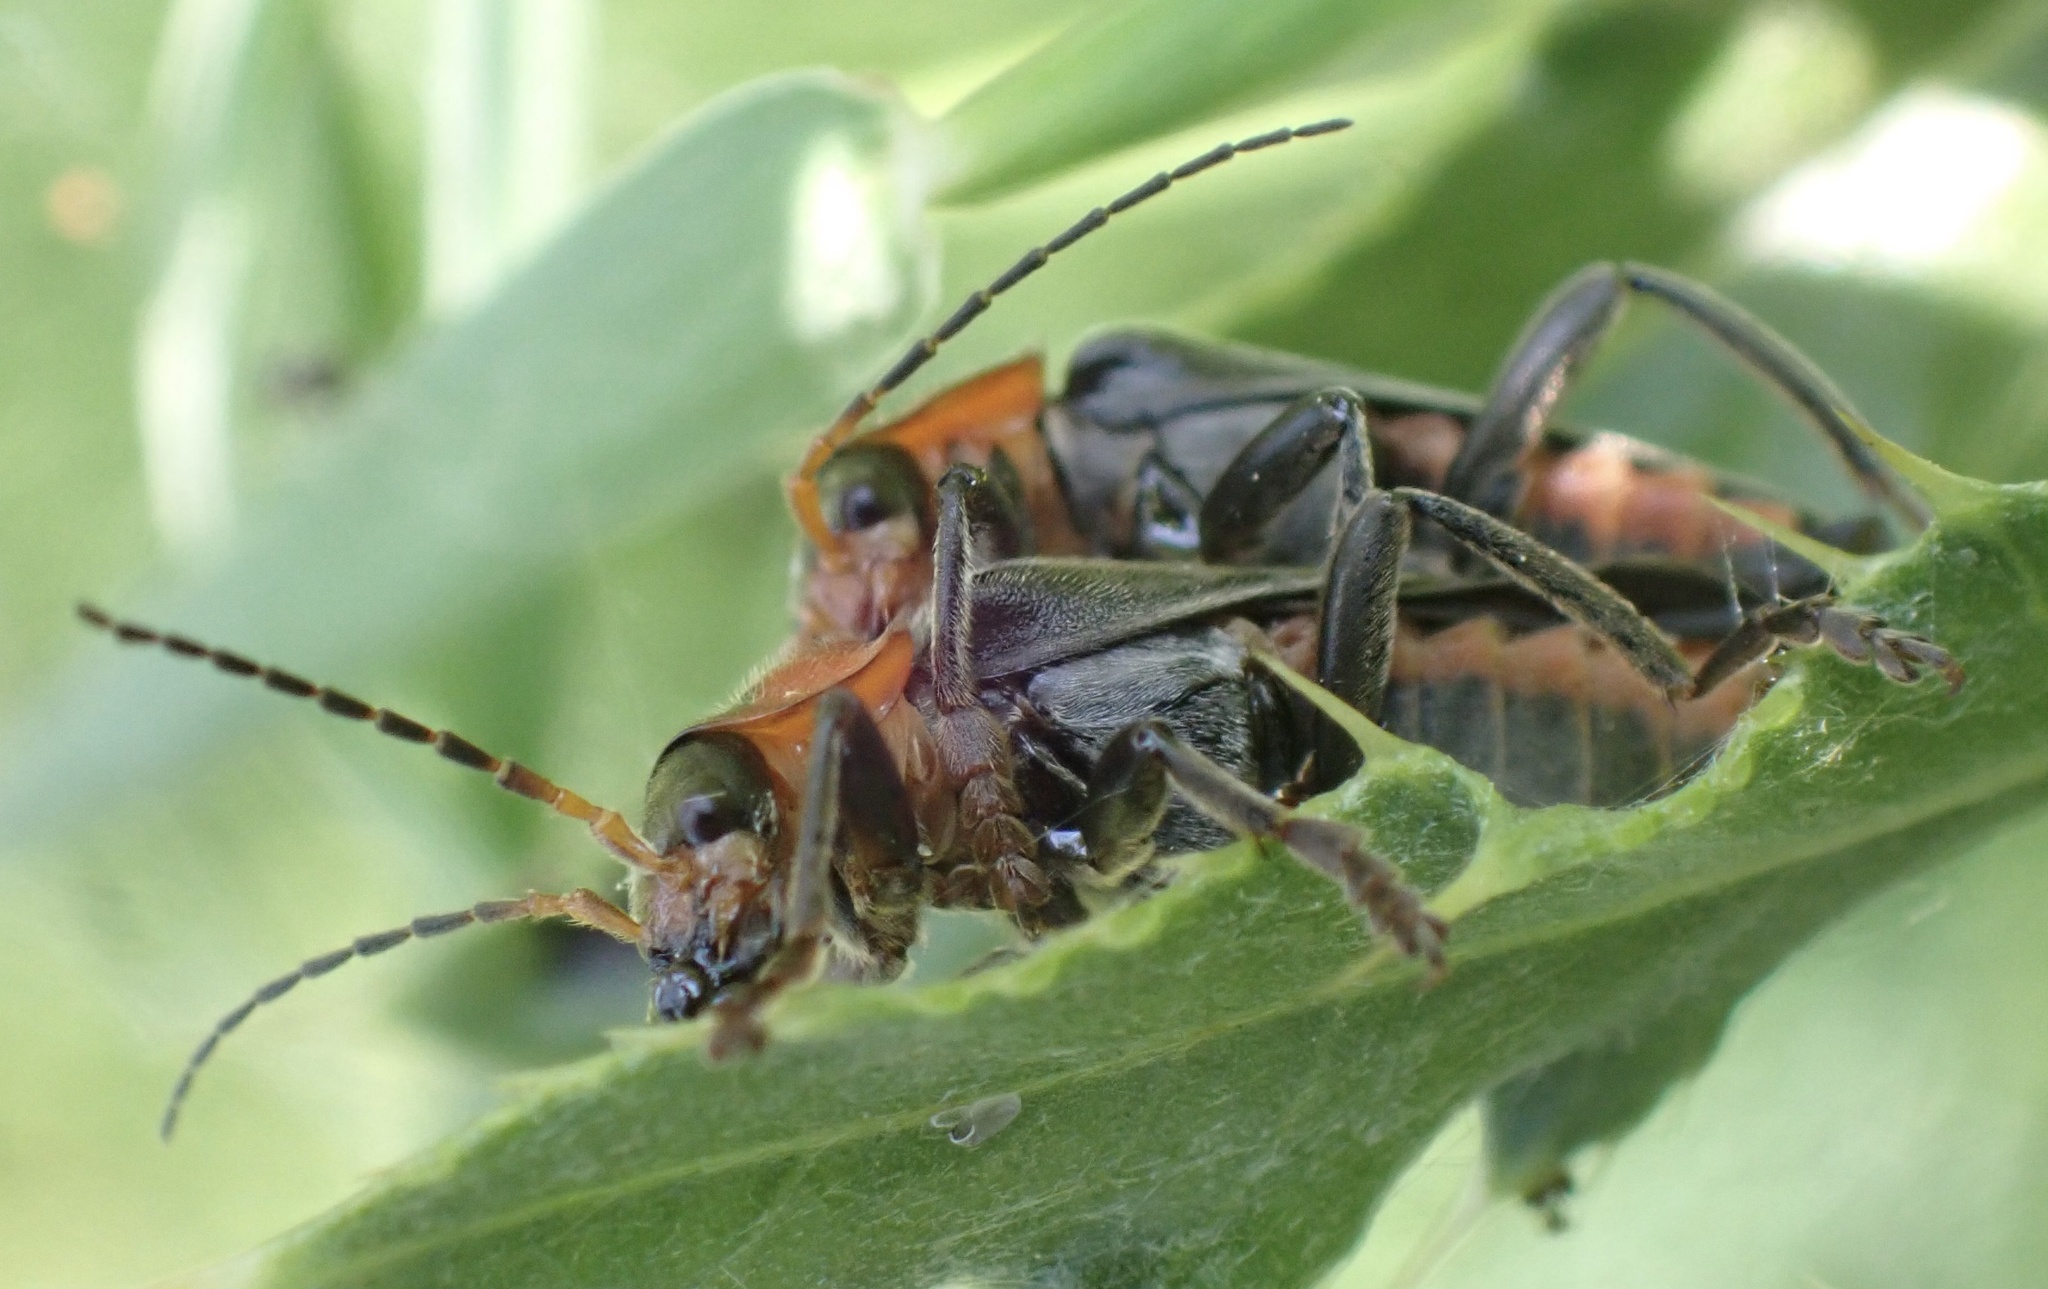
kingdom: Animalia
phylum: Arthropoda
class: Insecta
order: Coleoptera
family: Cantharidae
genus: Cantharis
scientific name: Cantharis fusca
